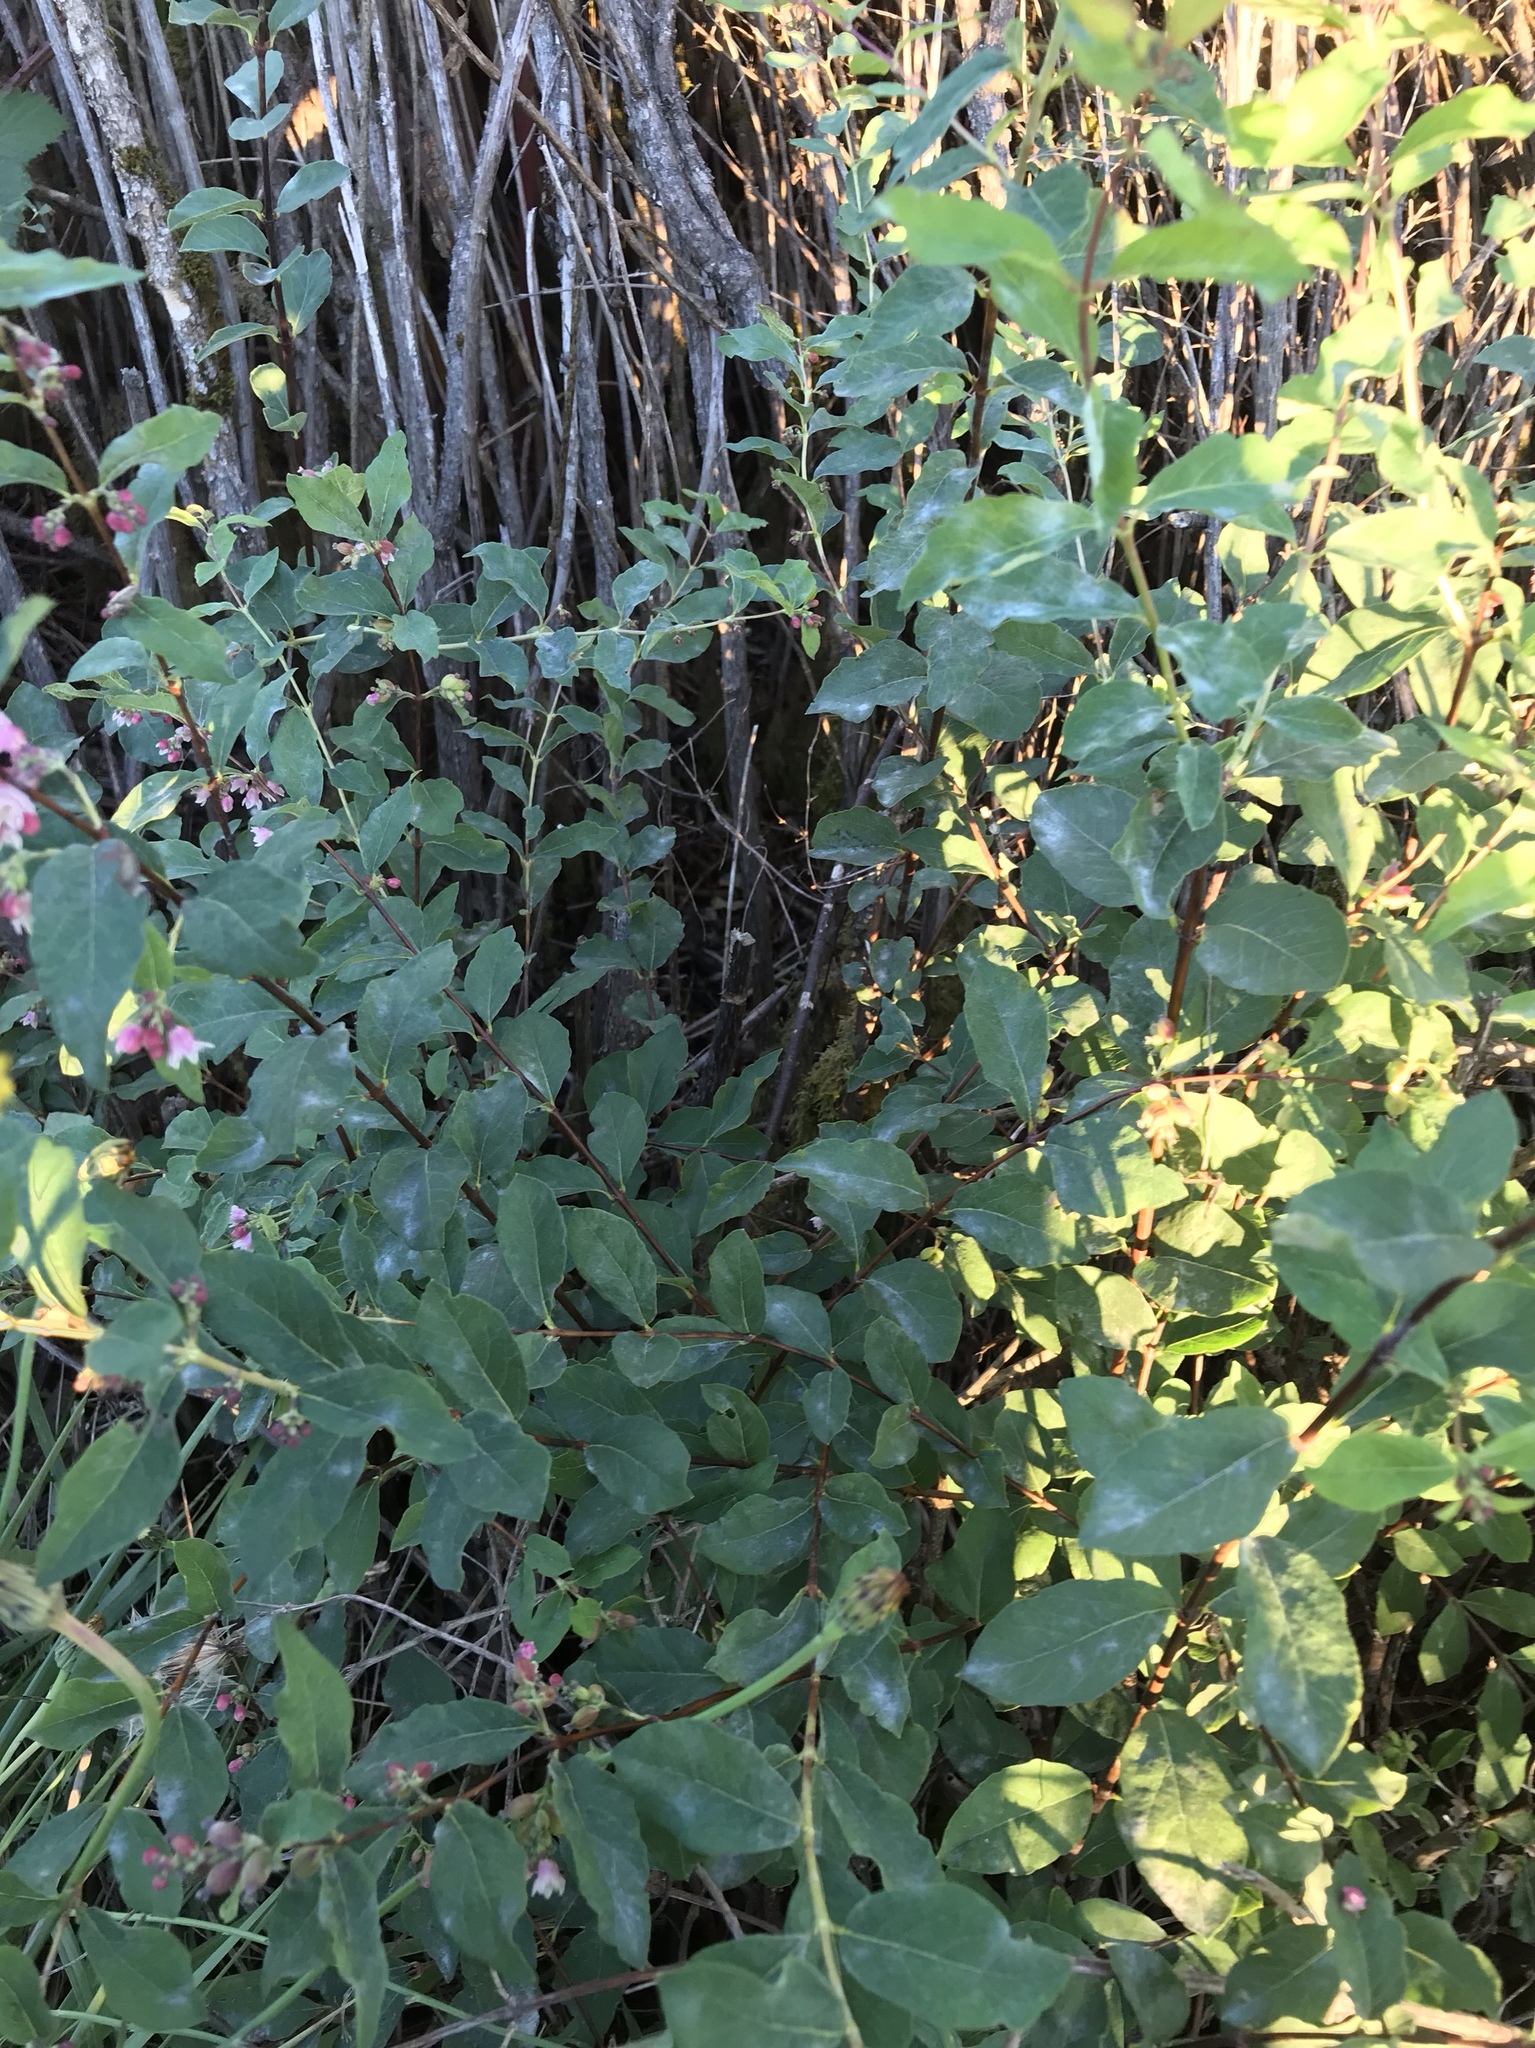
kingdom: Plantae
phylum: Tracheophyta
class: Magnoliopsida
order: Dipsacales
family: Caprifoliaceae
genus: Symphoricarpos
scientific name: Symphoricarpos albus
